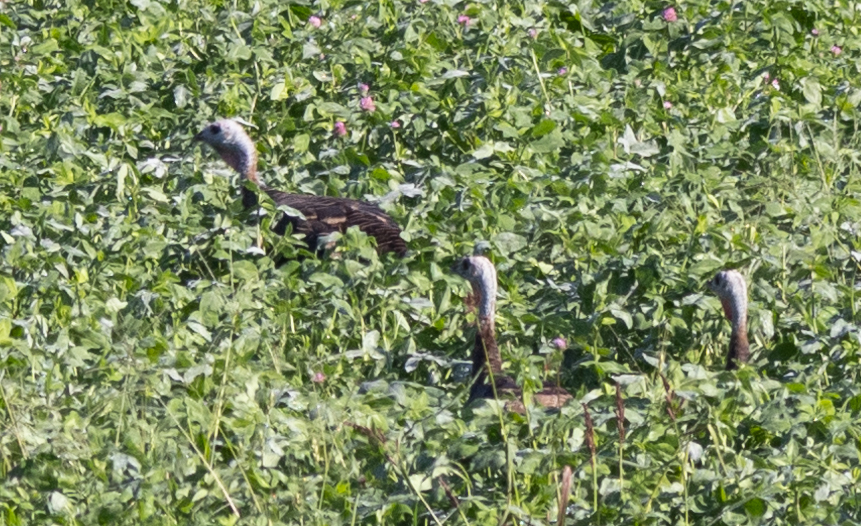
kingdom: Animalia
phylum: Chordata
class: Aves
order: Galliformes
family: Phasianidae
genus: Meleagris
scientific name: Meleagris gallopavo
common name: Wild turkey
